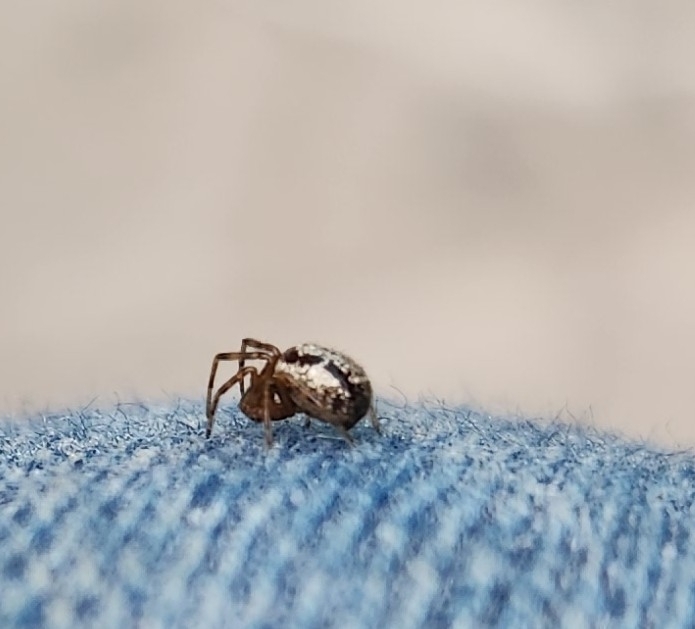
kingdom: Animalia
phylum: Arthropoda
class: Arachnida
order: Araneae
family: Theridiidae
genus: Steatoda
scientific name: Steatoda nobilis
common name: Cobweb weaver
